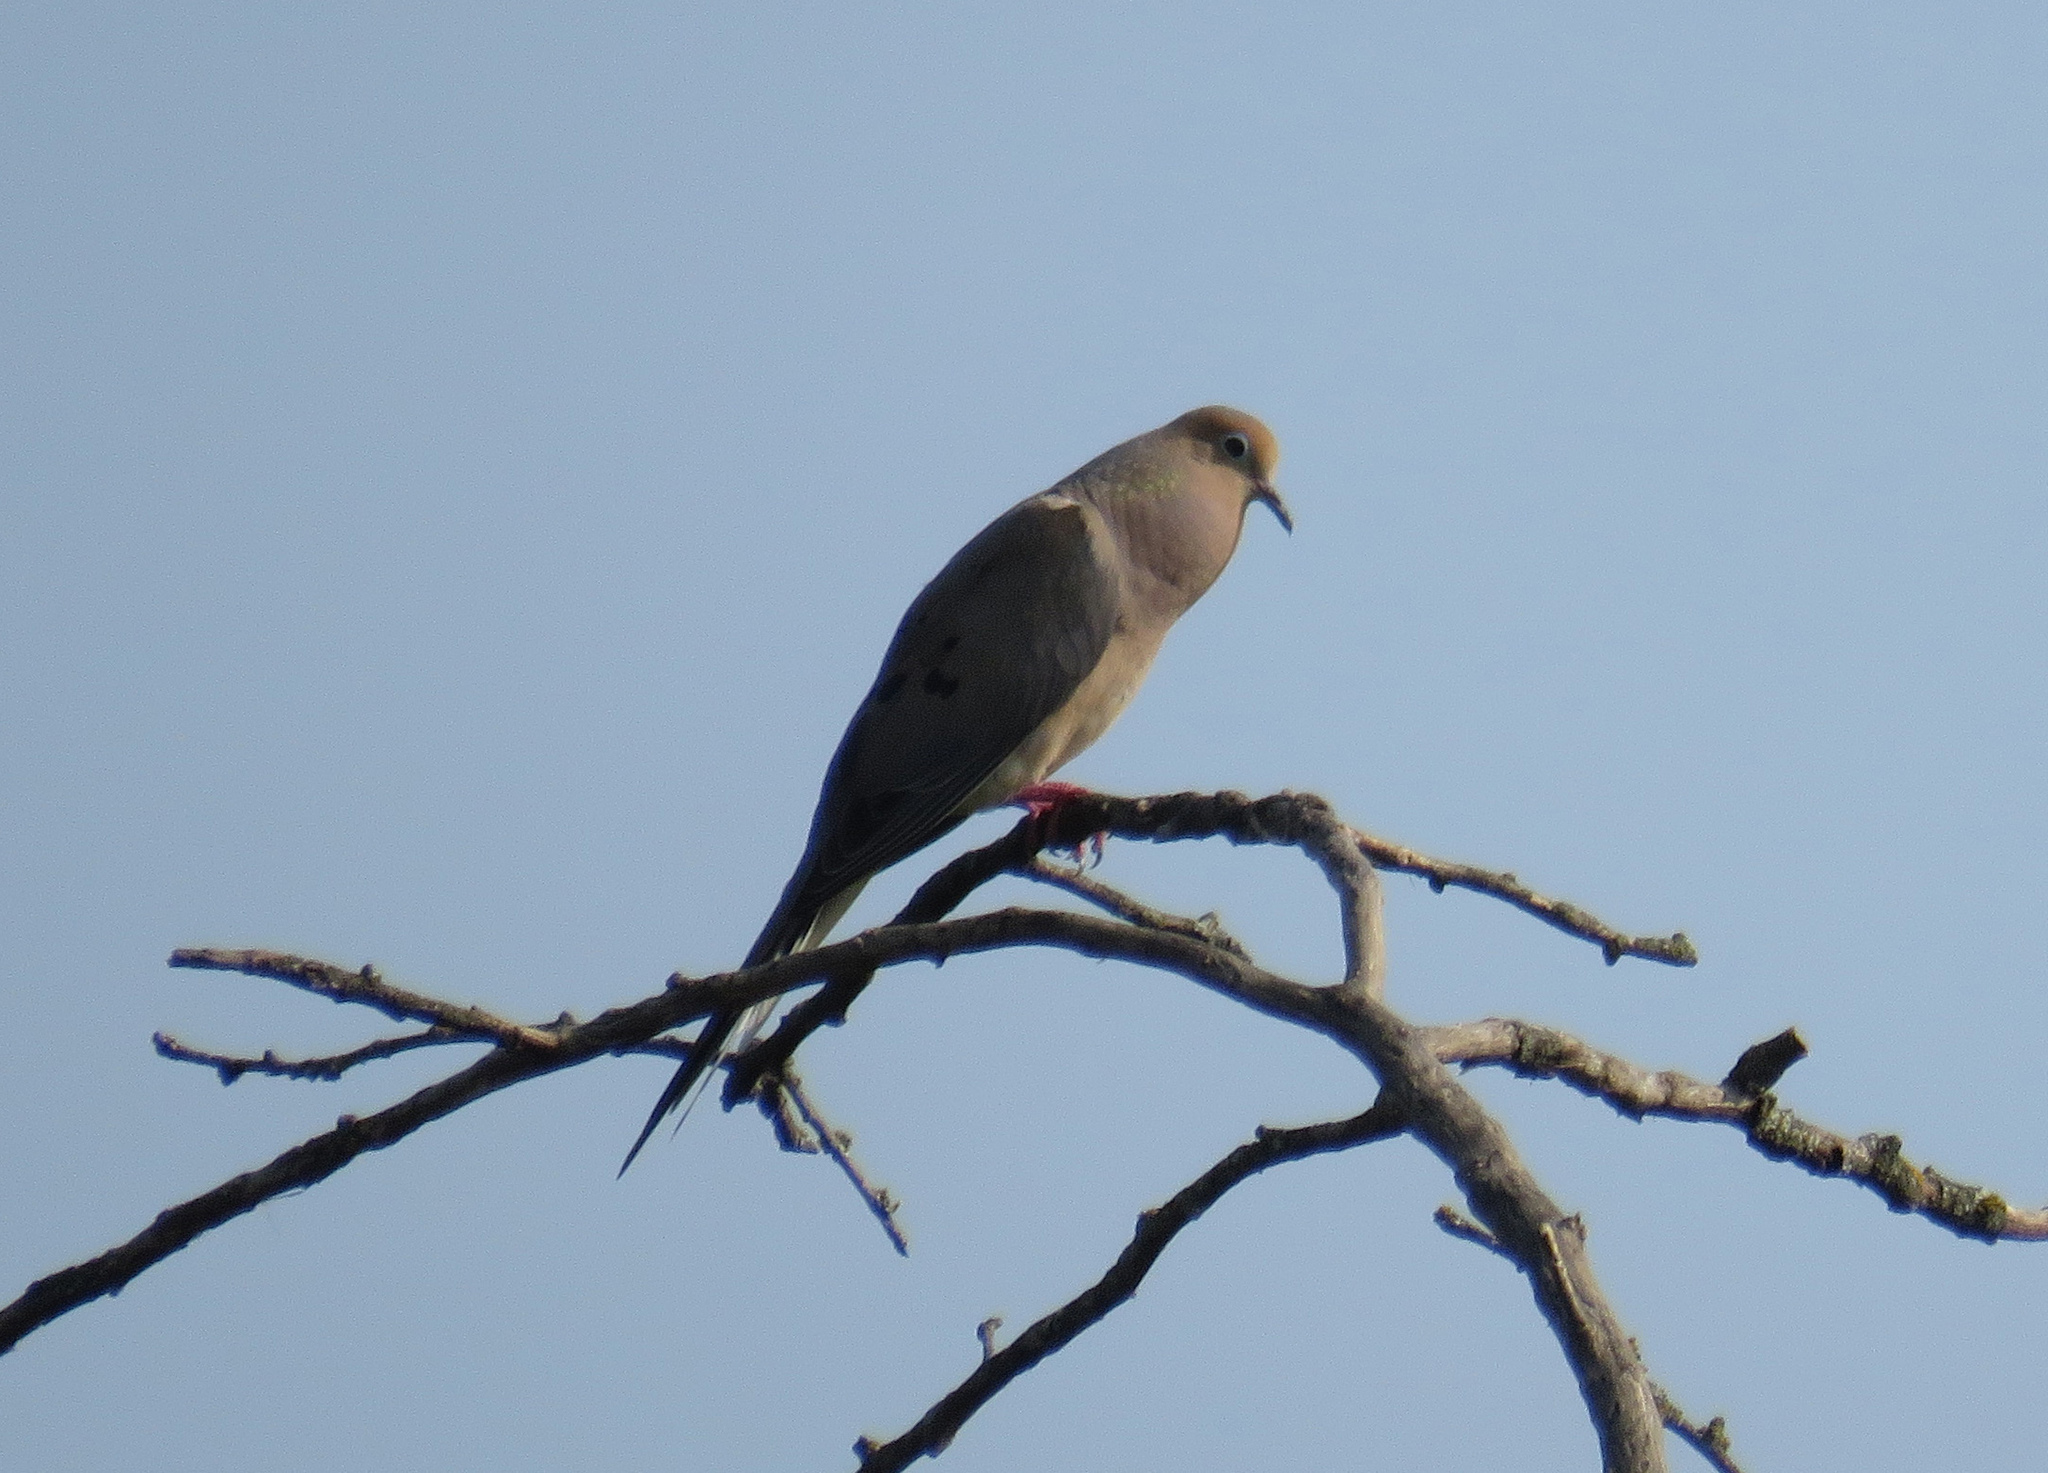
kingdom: Animalia
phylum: Chordata
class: Aves
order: Columbiformes
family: Columbidae
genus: Zenaida
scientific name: Zenaida macroura
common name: Mourning dove
